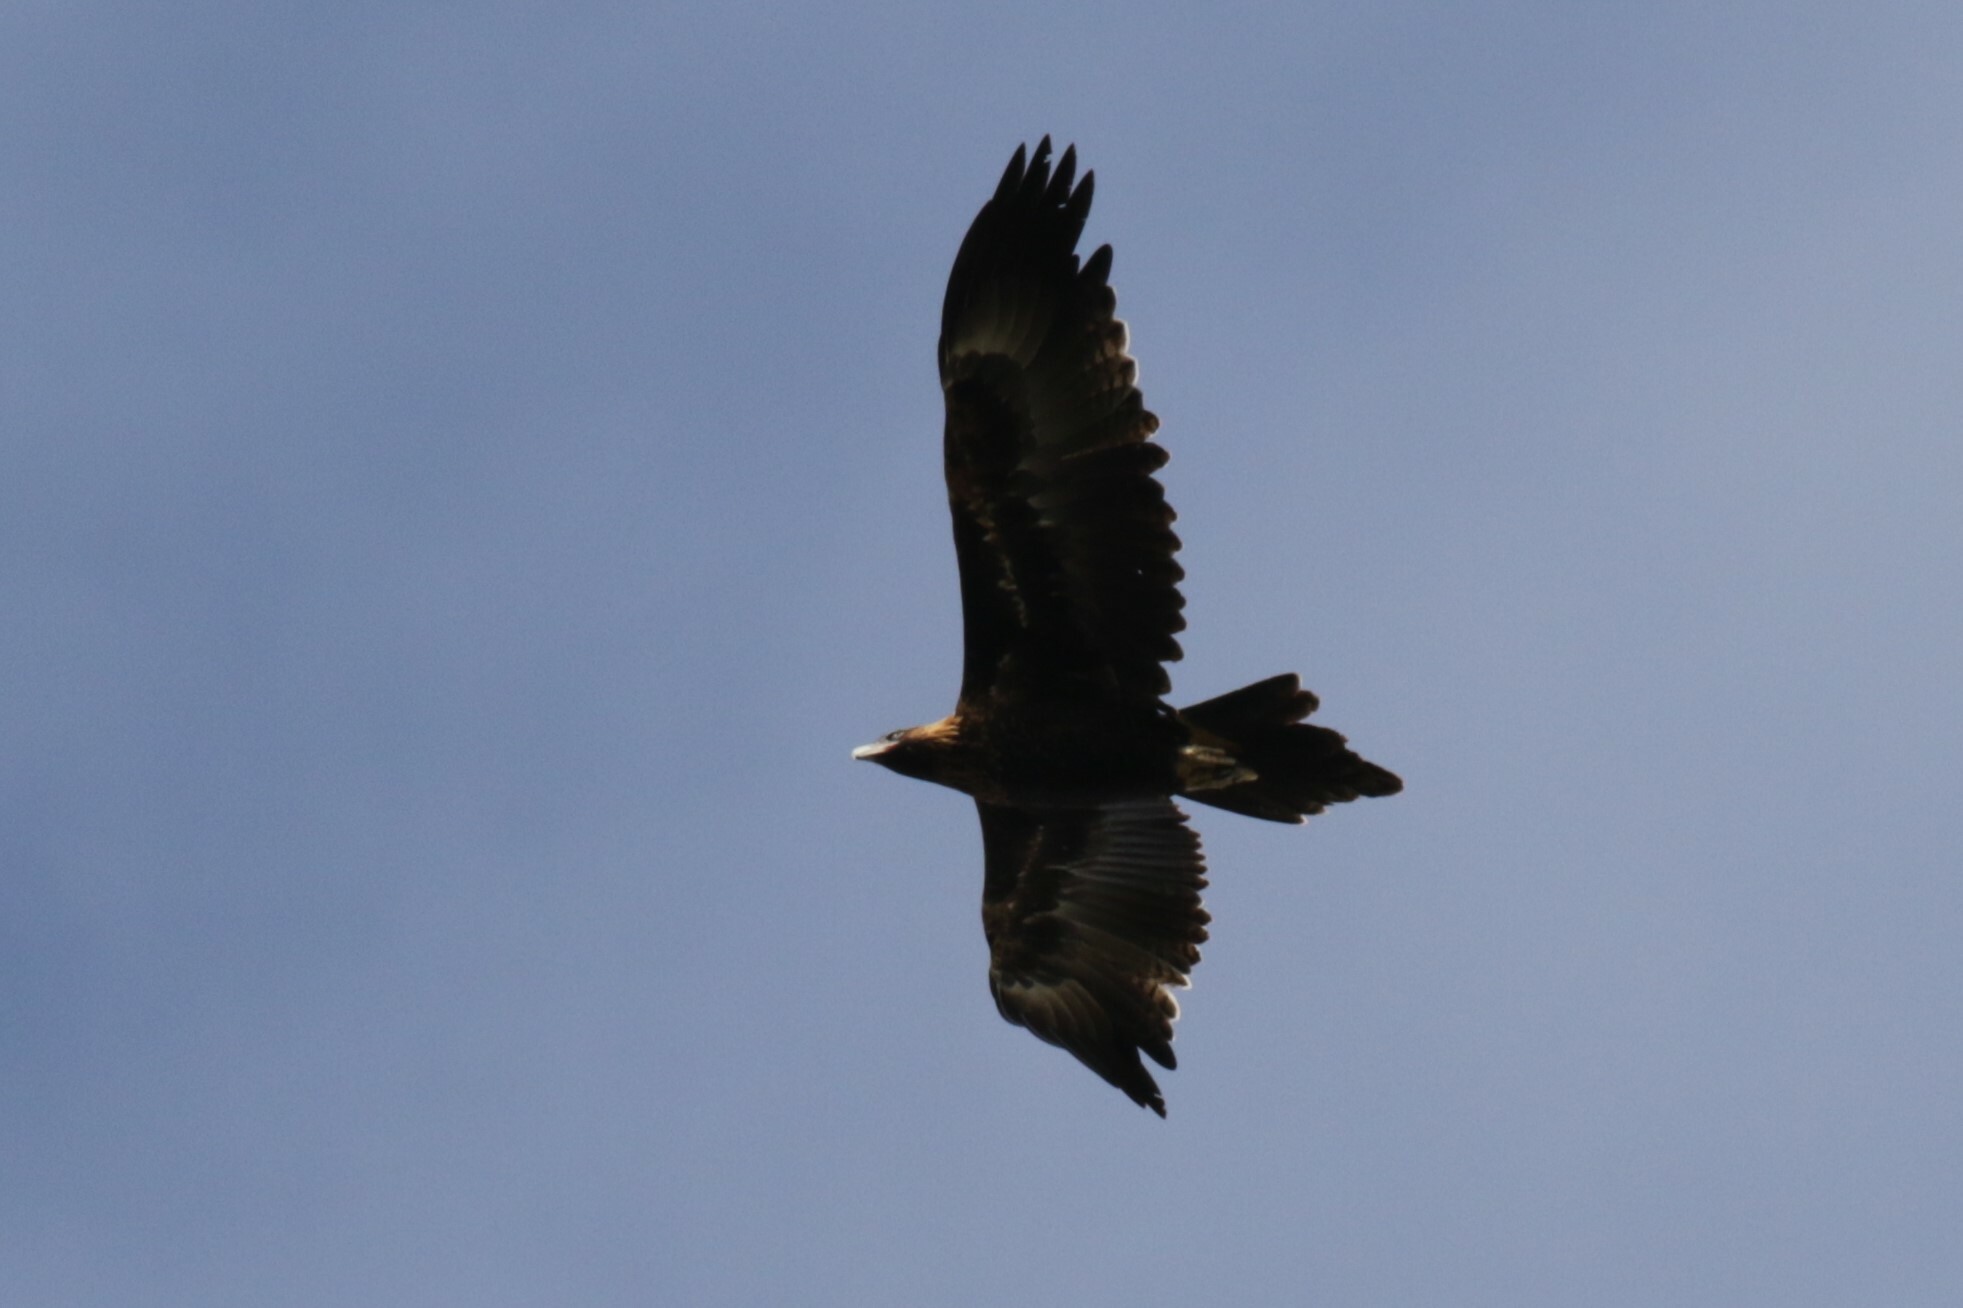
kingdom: Animalia
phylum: Chordata
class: Aves
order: Accipitriformes
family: Accipitridae
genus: Aquila
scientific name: Aquila audax
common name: Wedge-tailed eagle
